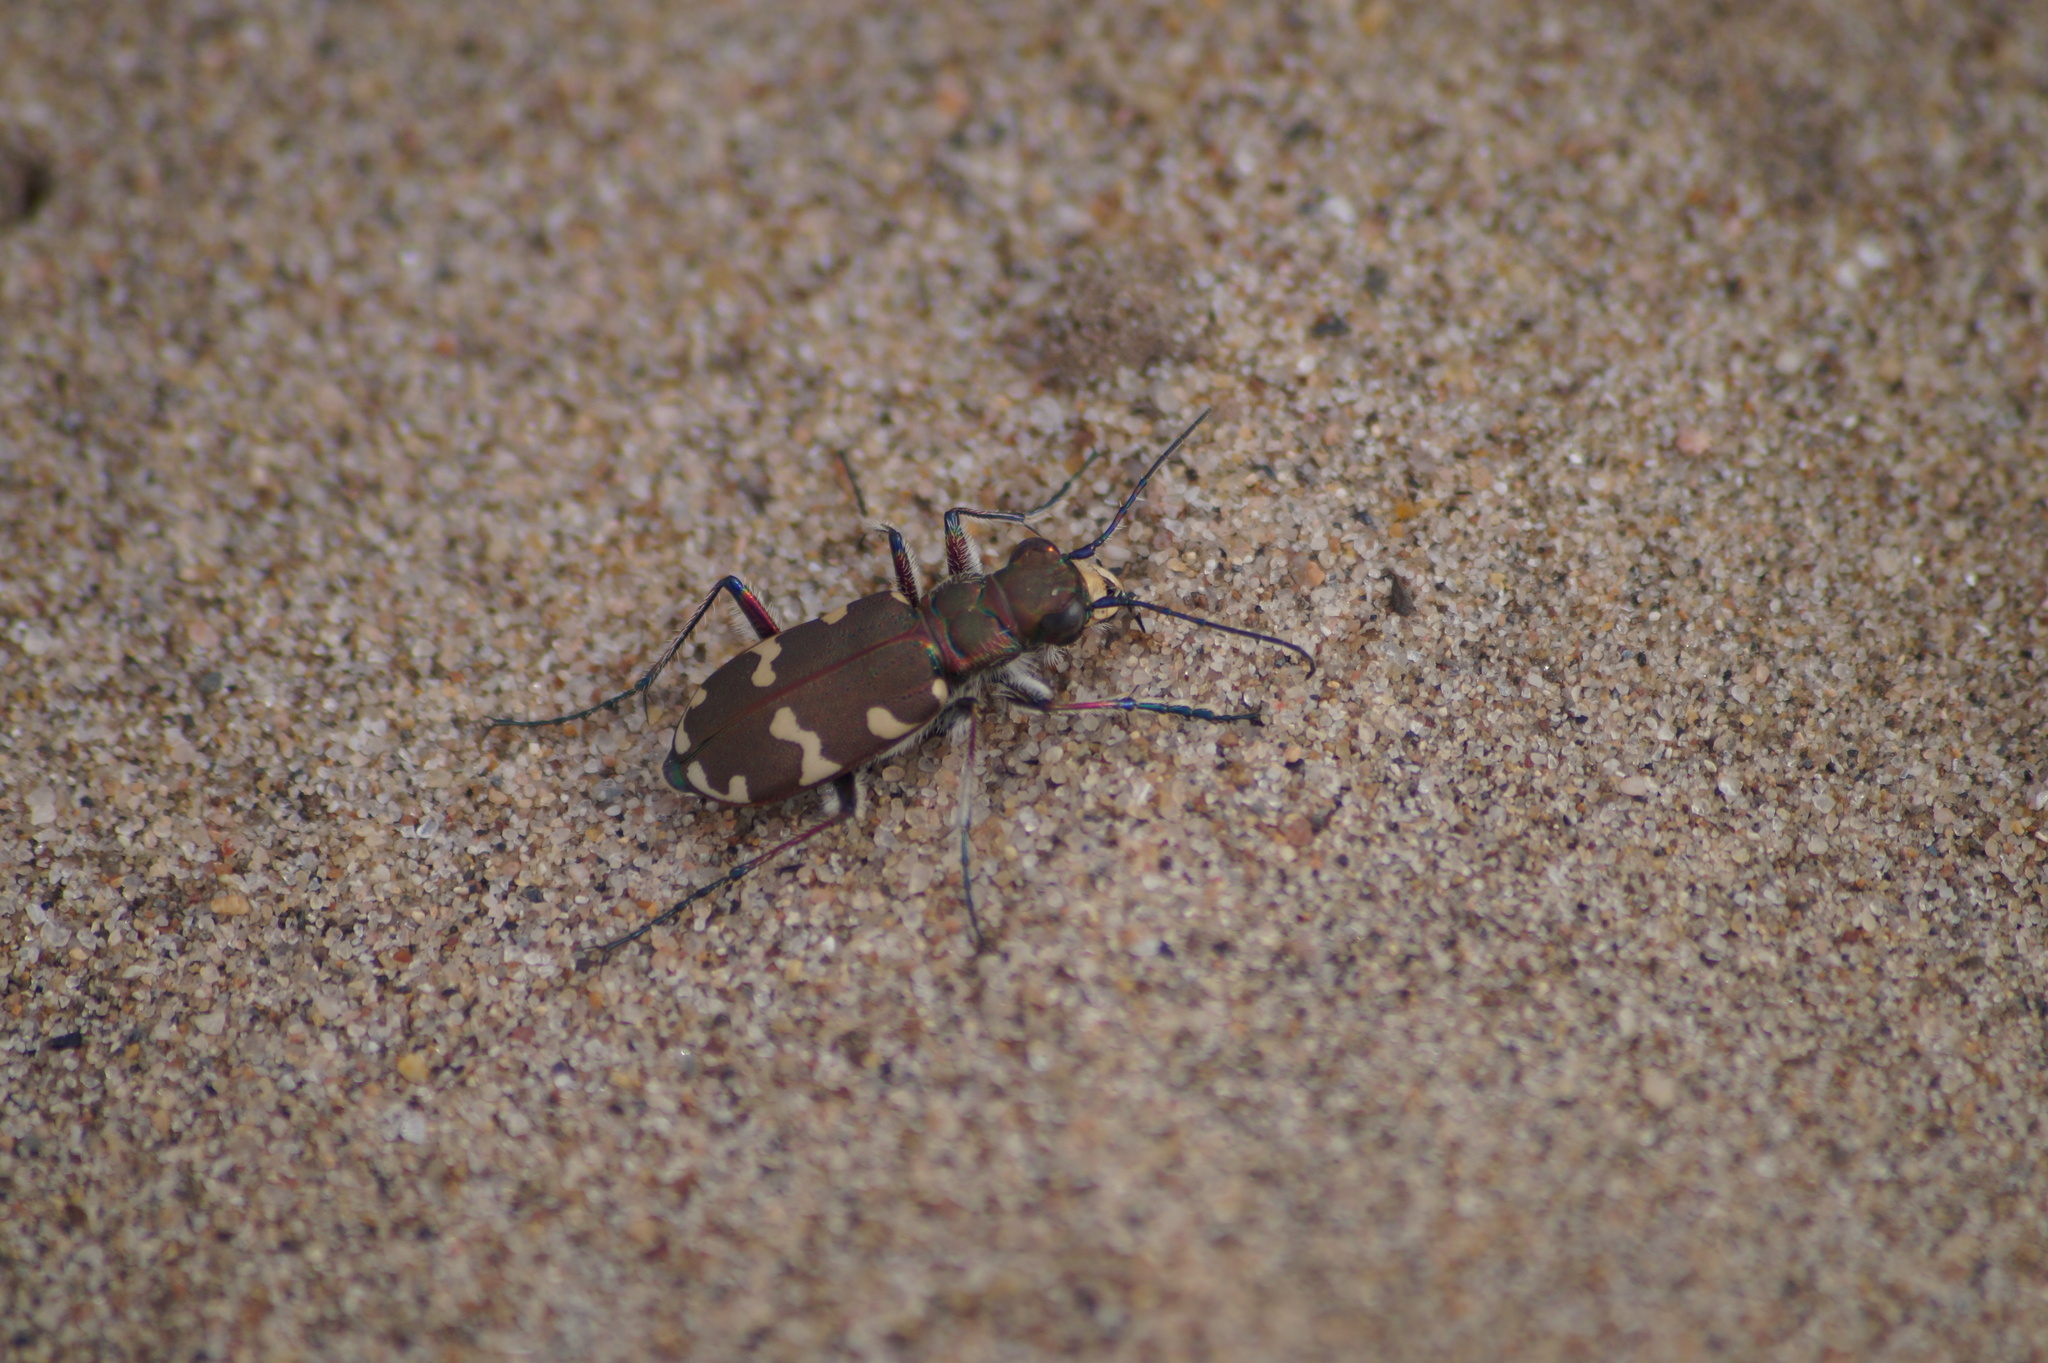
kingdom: Animalia
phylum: Arthropoda
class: Insecta
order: Coleoptera
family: Carabidae
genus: Cicindela
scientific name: Cicindela hybrida
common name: Northern dune tiger beetle
